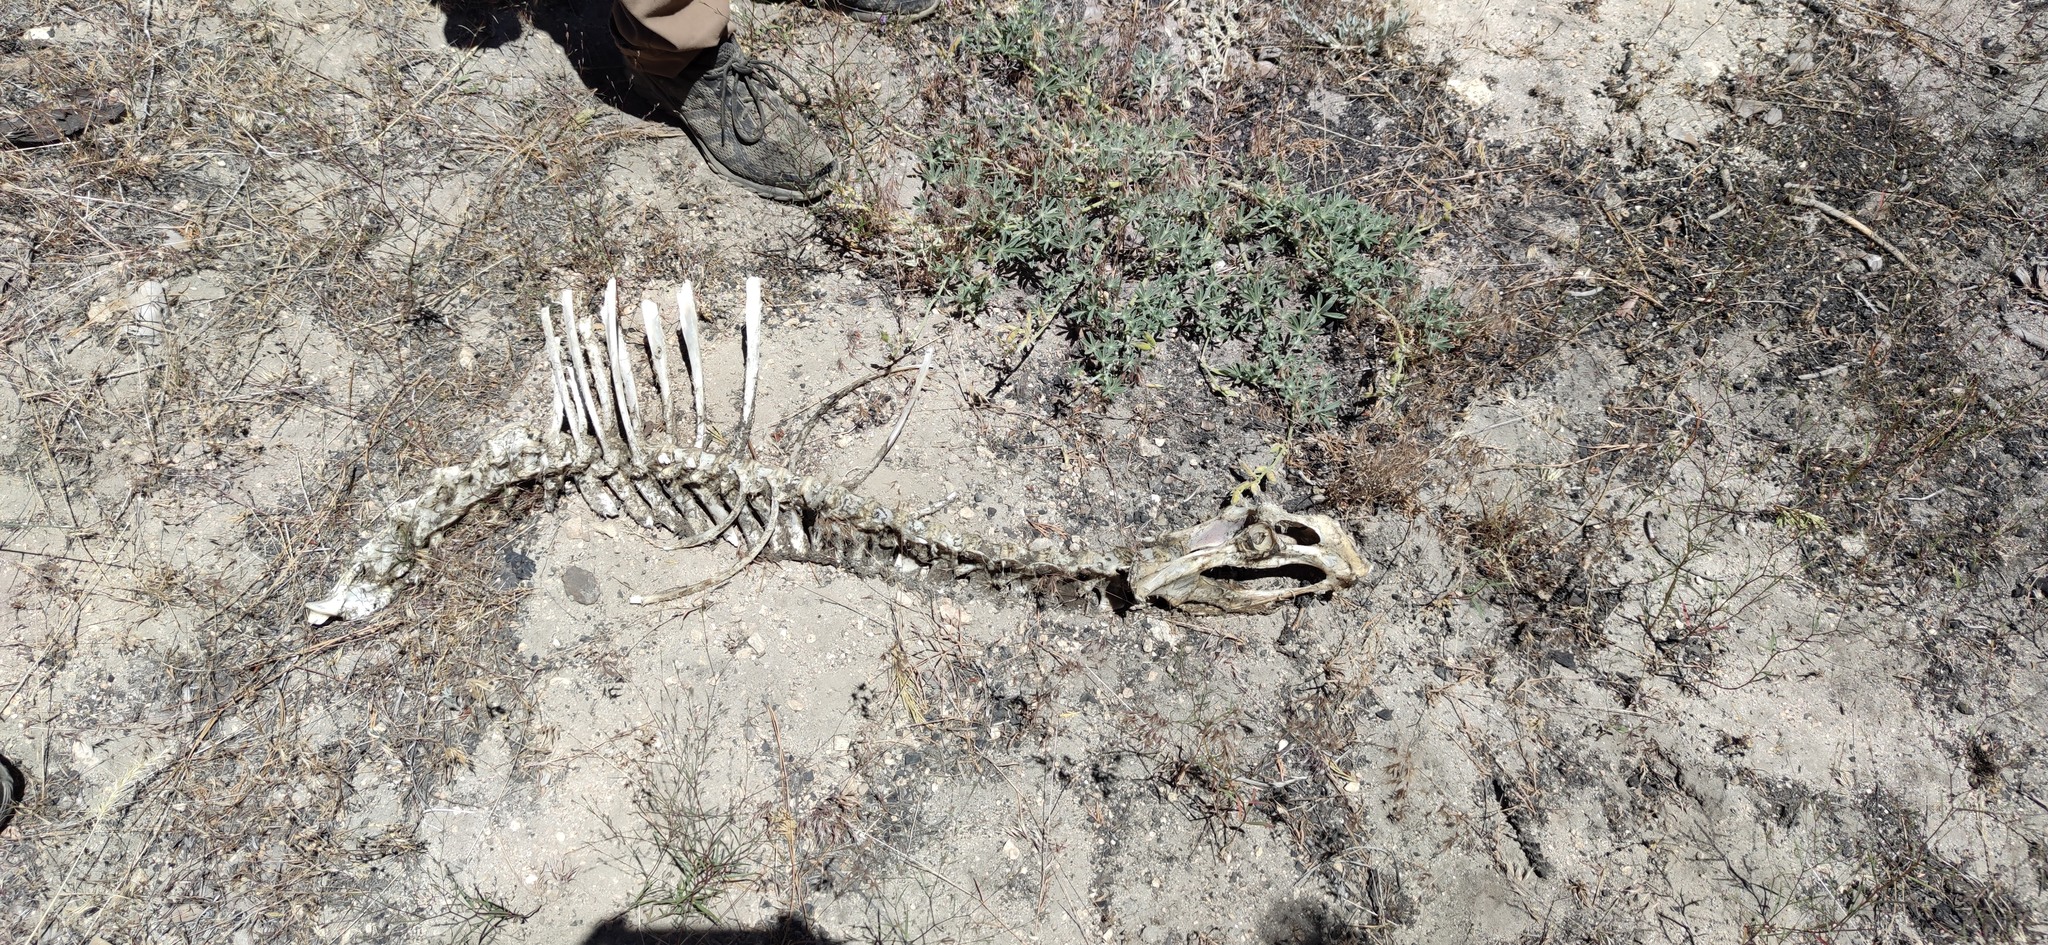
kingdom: Animalia
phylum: Chordata
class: Mammalia
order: Artiodactyla
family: Cervidae
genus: Odocoileus
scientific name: Odocoileus hemionus
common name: Mule deer
